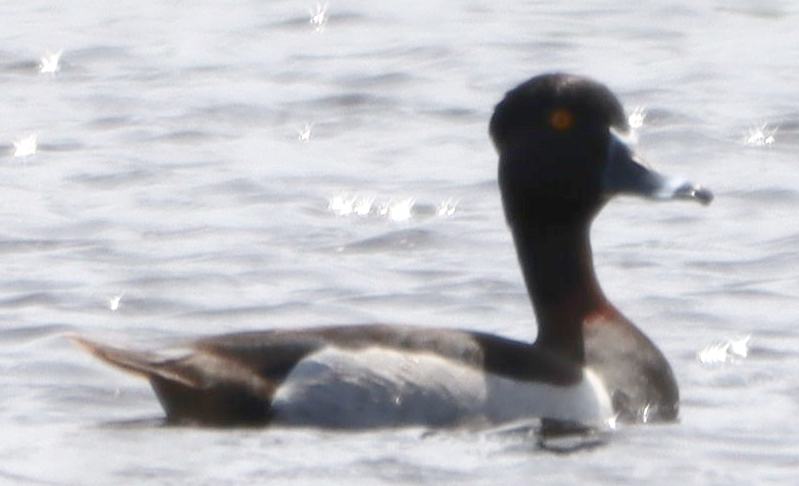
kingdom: Animalia
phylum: Chordata
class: Aves
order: Anseriformes
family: Anatidae
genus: Aythya
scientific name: Aythya collaris
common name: Ring-necked duck
